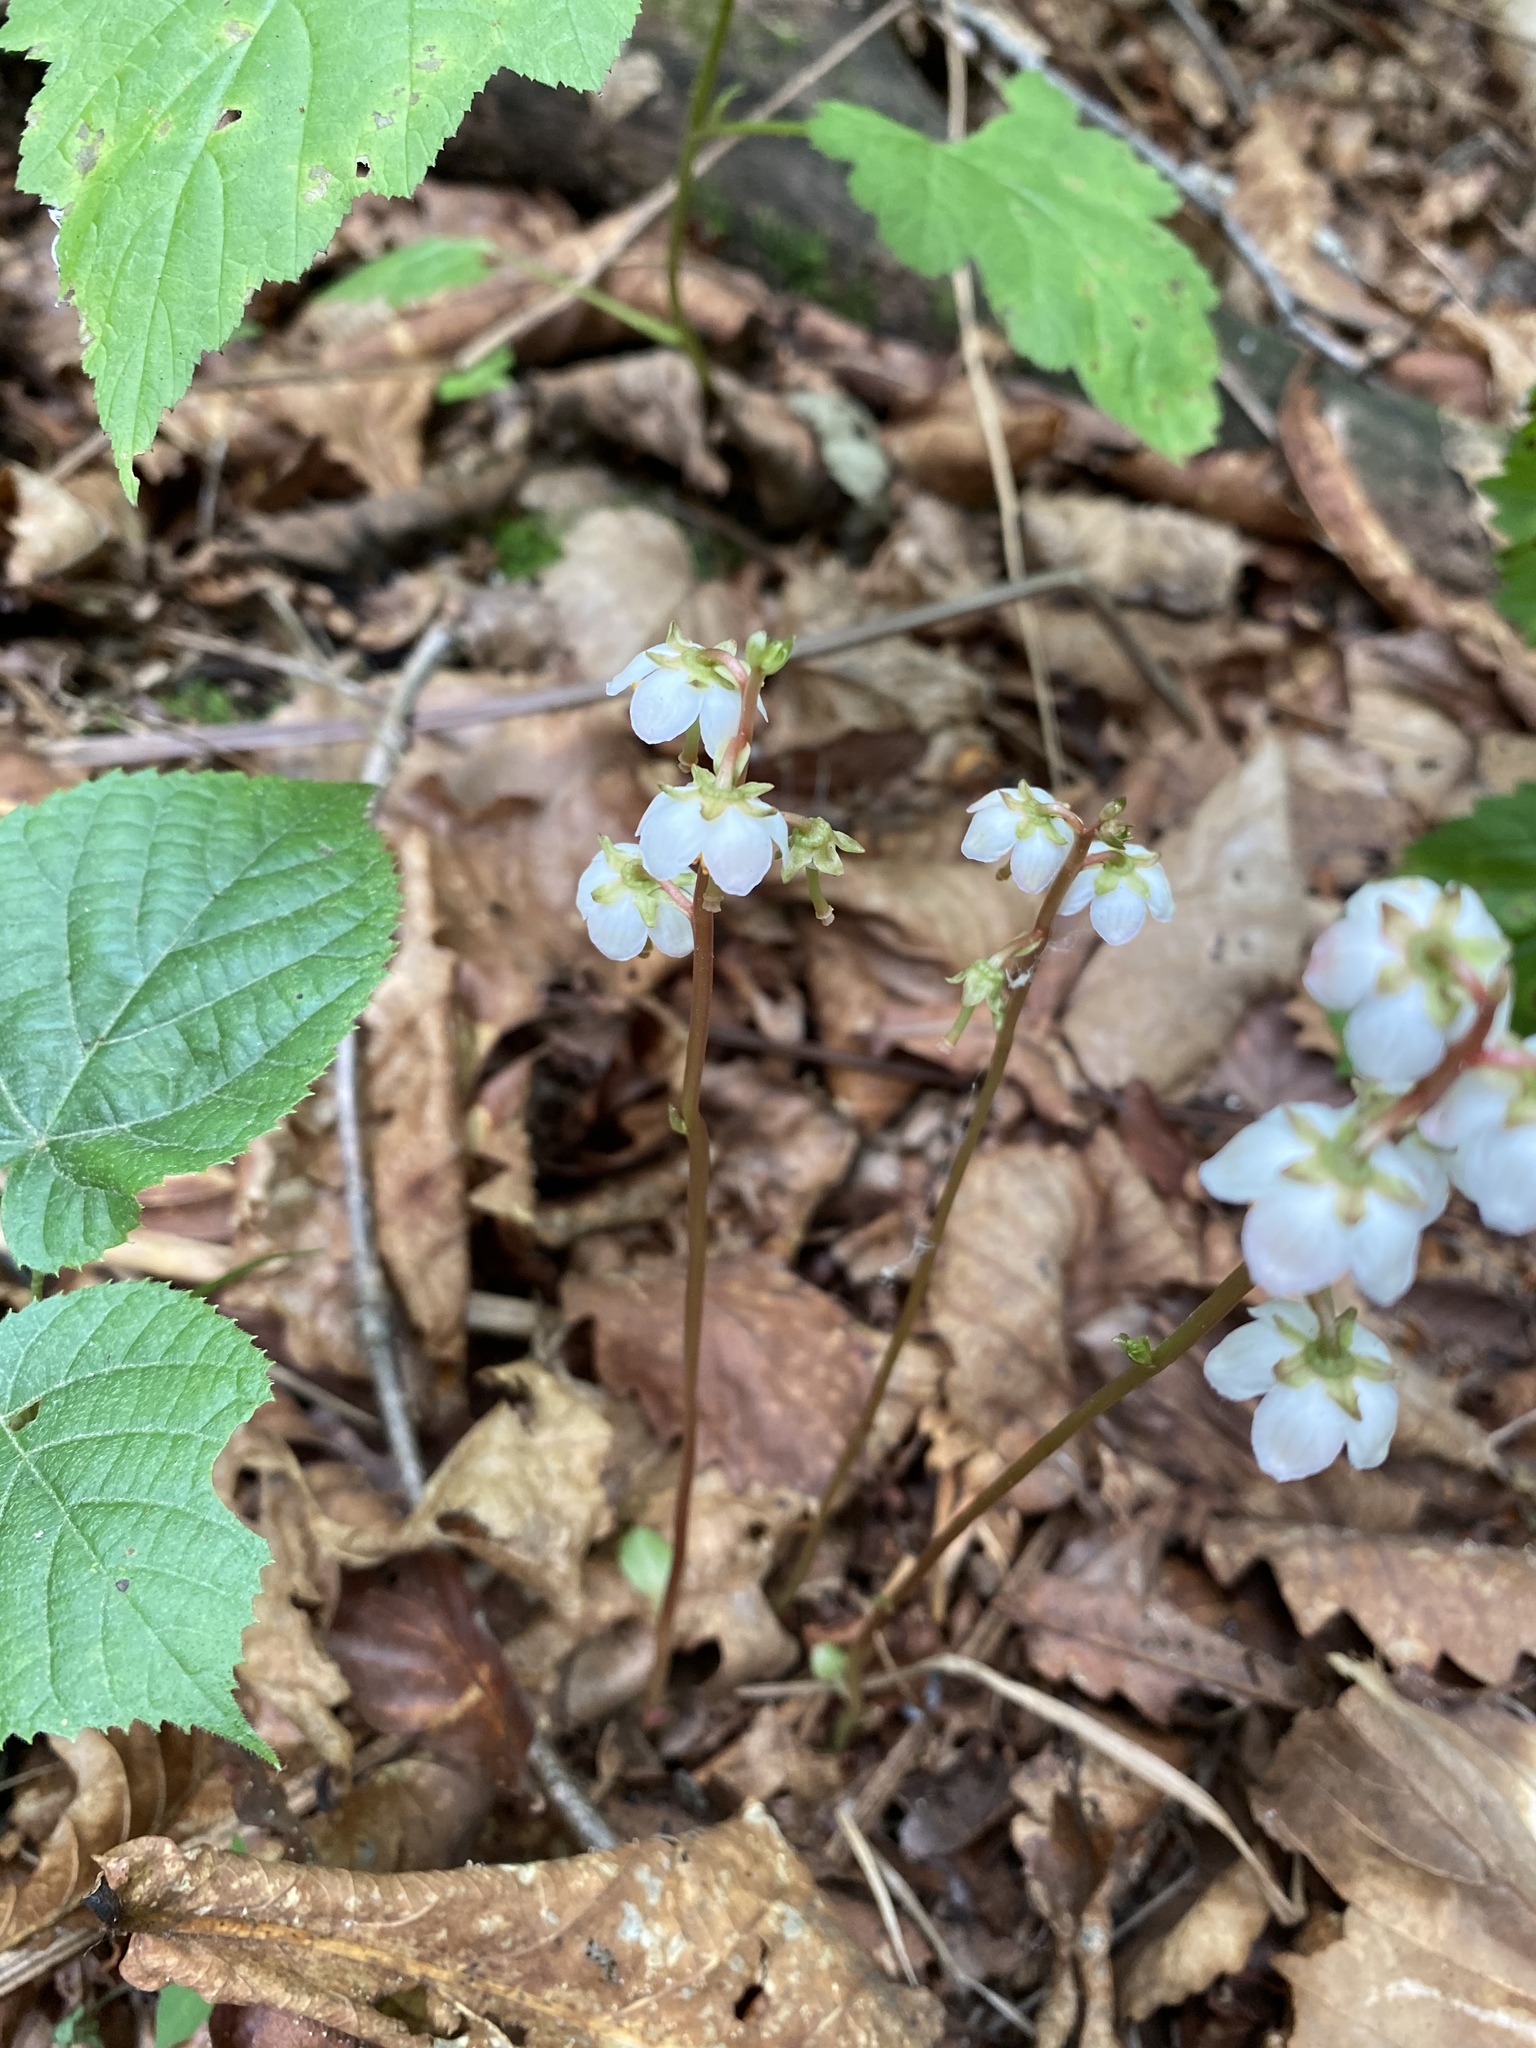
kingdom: Plantae
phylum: Tracheophyta
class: Magnoliopsida
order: Ericales
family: Ericaceae
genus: Pyrola
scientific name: Pyrola japonica
